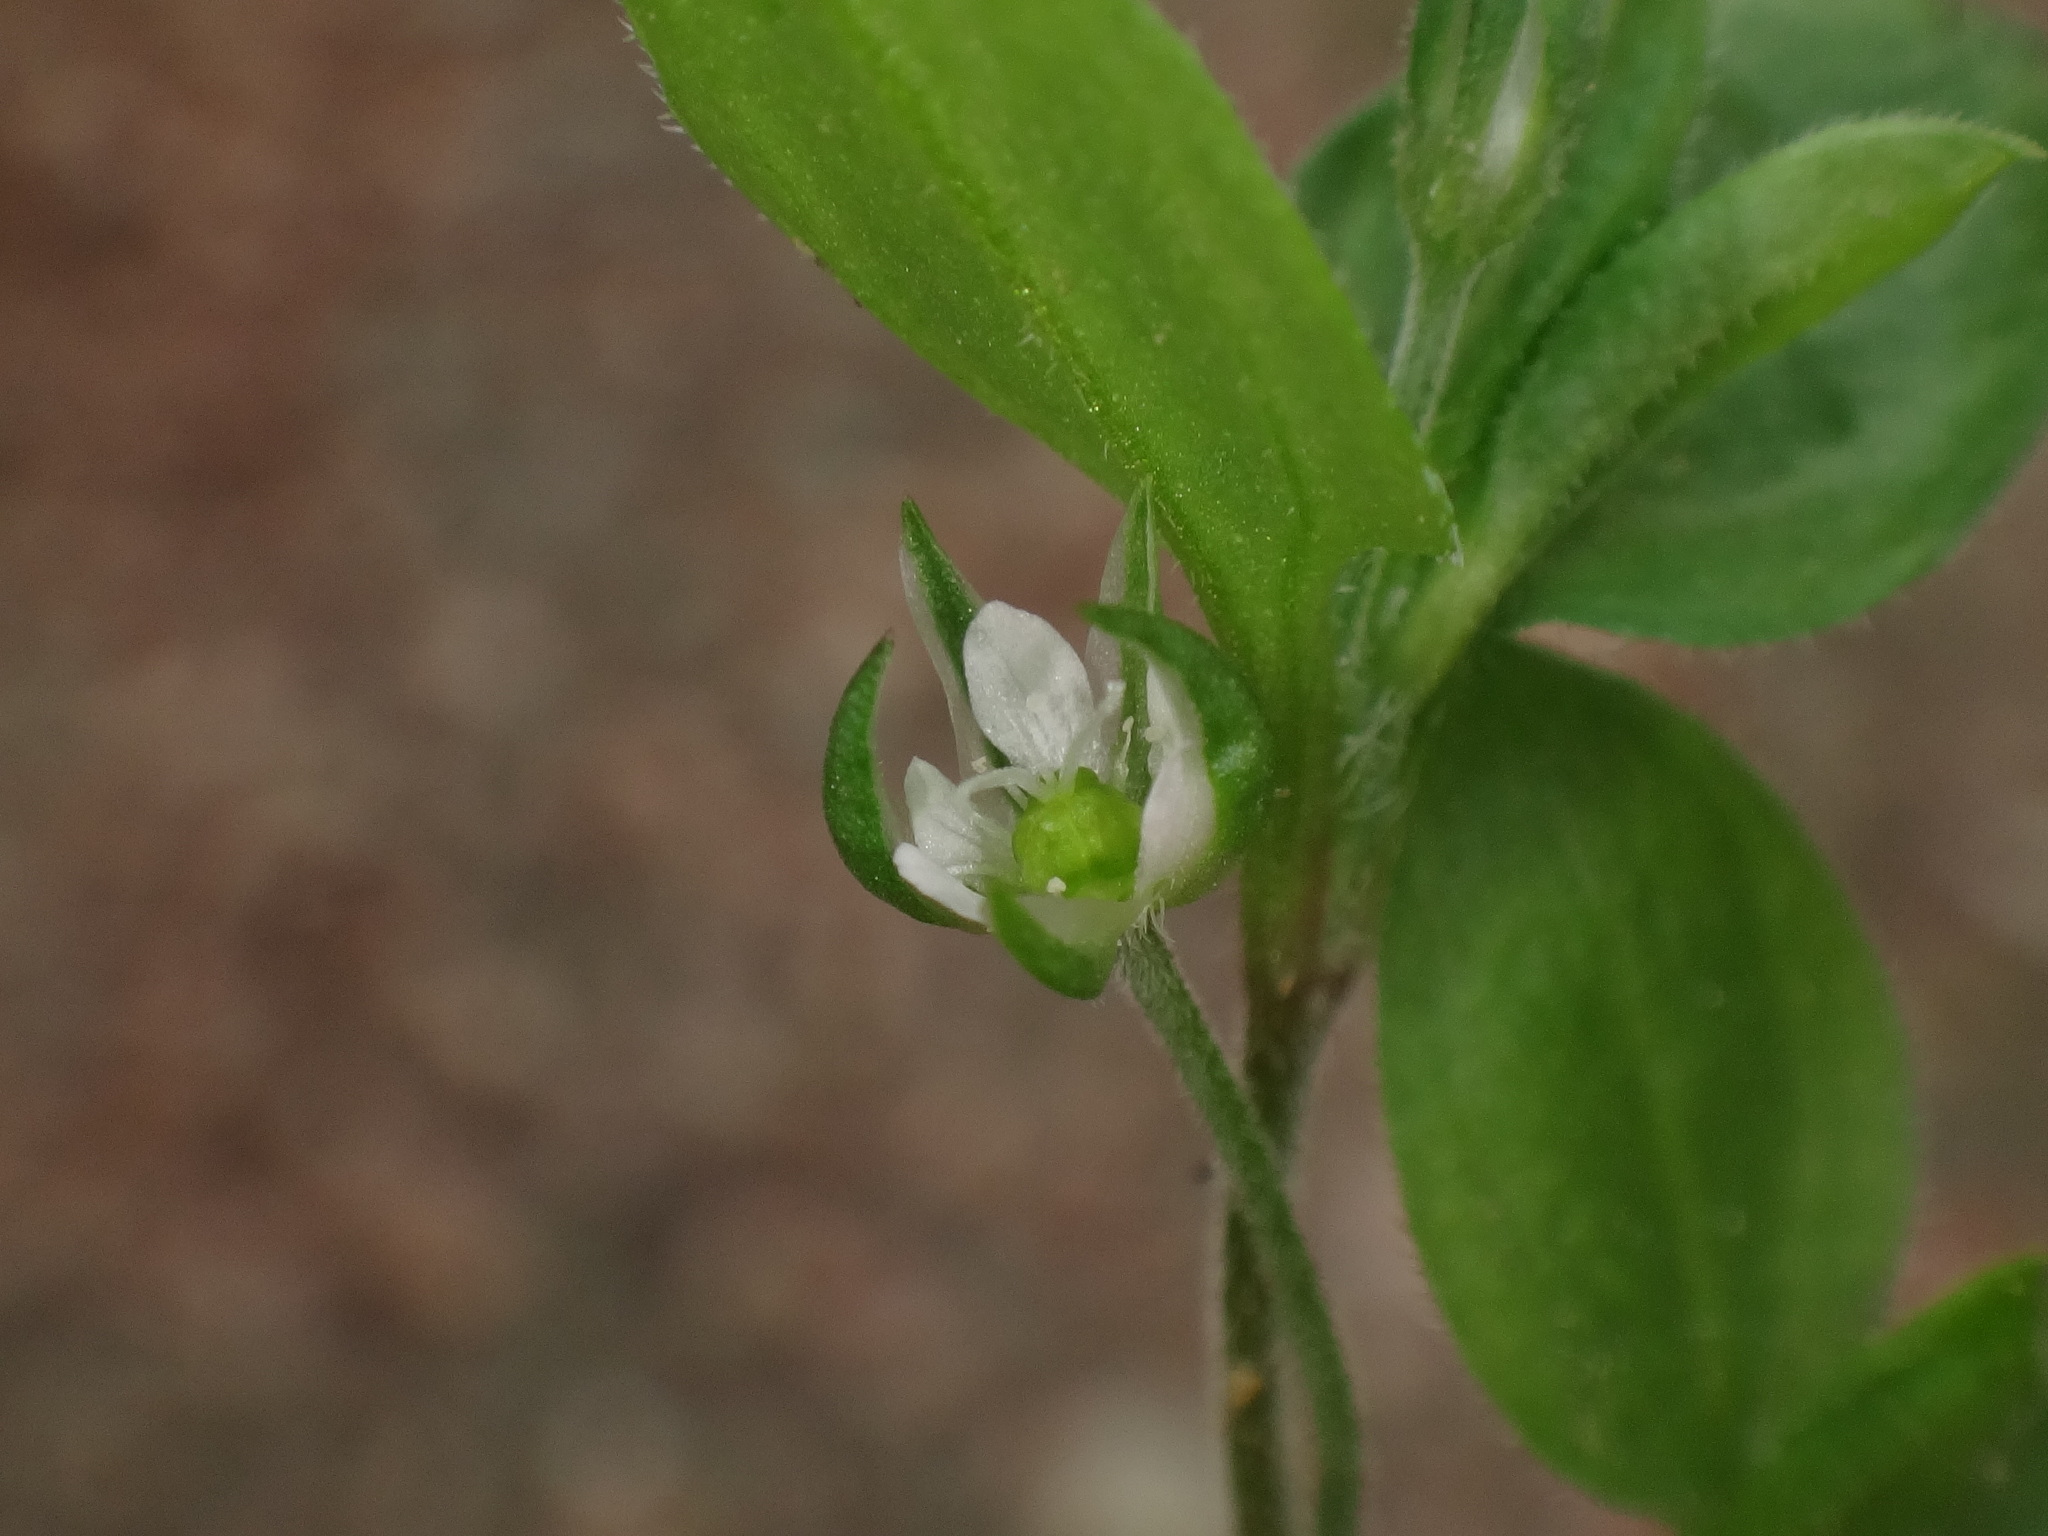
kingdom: Plantae
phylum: Tracheophyta
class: Magnoliopsida
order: Caryophyllales
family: Caryophyllaceae
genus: Moehringia
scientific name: Moehringia trinervia
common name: Three-nerved sandwort
